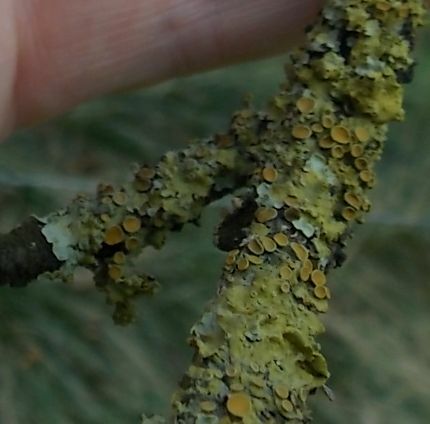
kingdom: Fungi
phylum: Ascomycota
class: Lecanoromycetes
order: Teloschistales
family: Teloschistaceae
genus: Xanthoria
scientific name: Xanthoria parietina
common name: Common orange lichen
